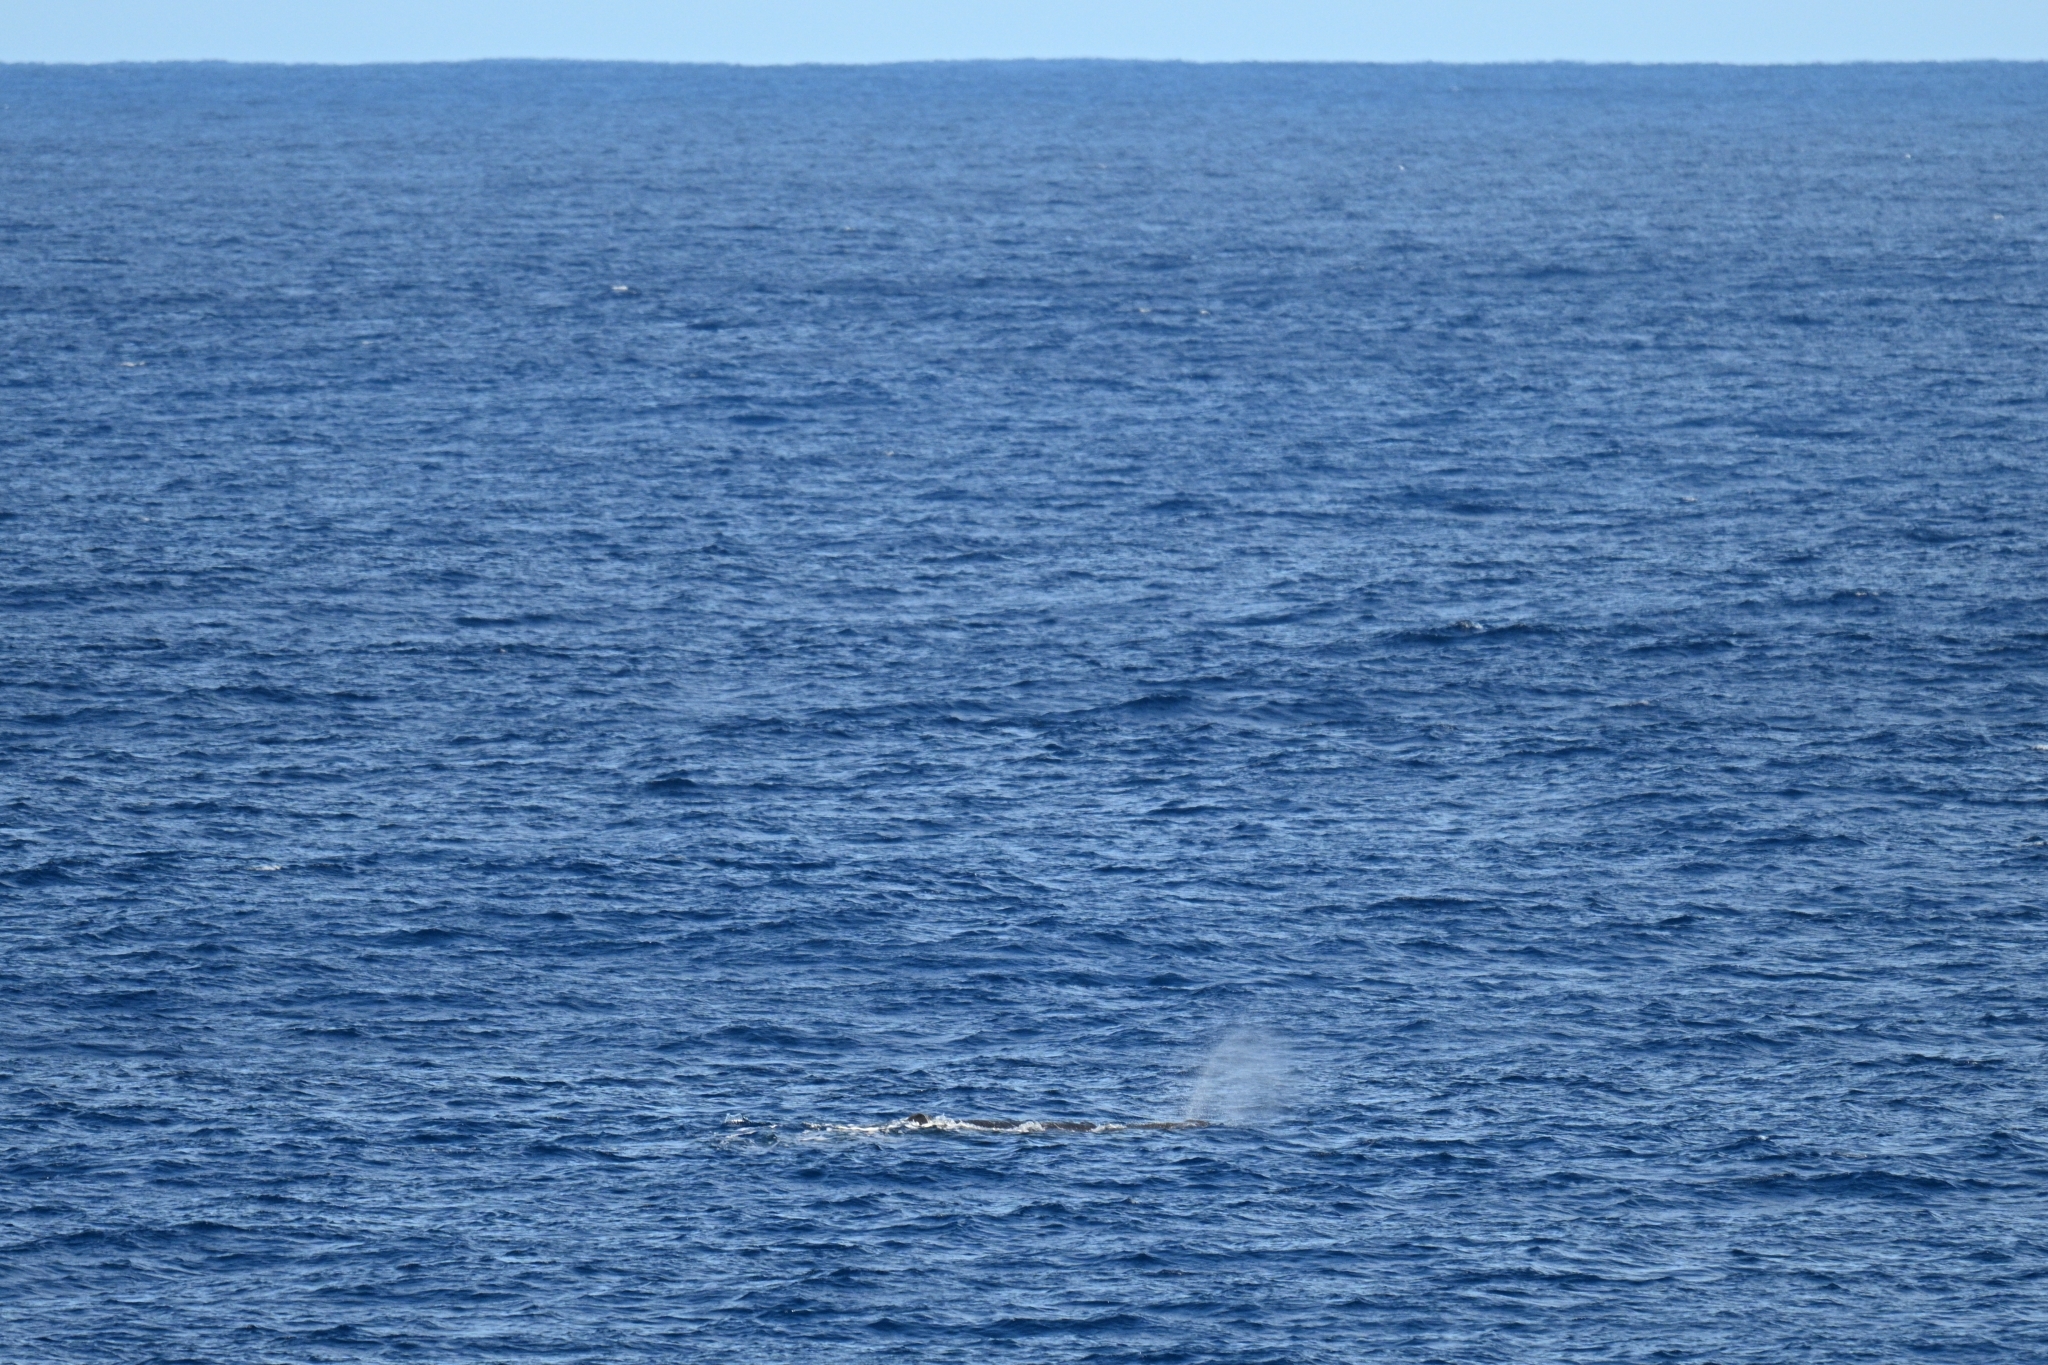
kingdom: Animalia
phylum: Chordata
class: Mammalia
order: Cetacea
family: Physeteridae
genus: Physeter
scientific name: Physeter macrocephalus
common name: Sperm whale
